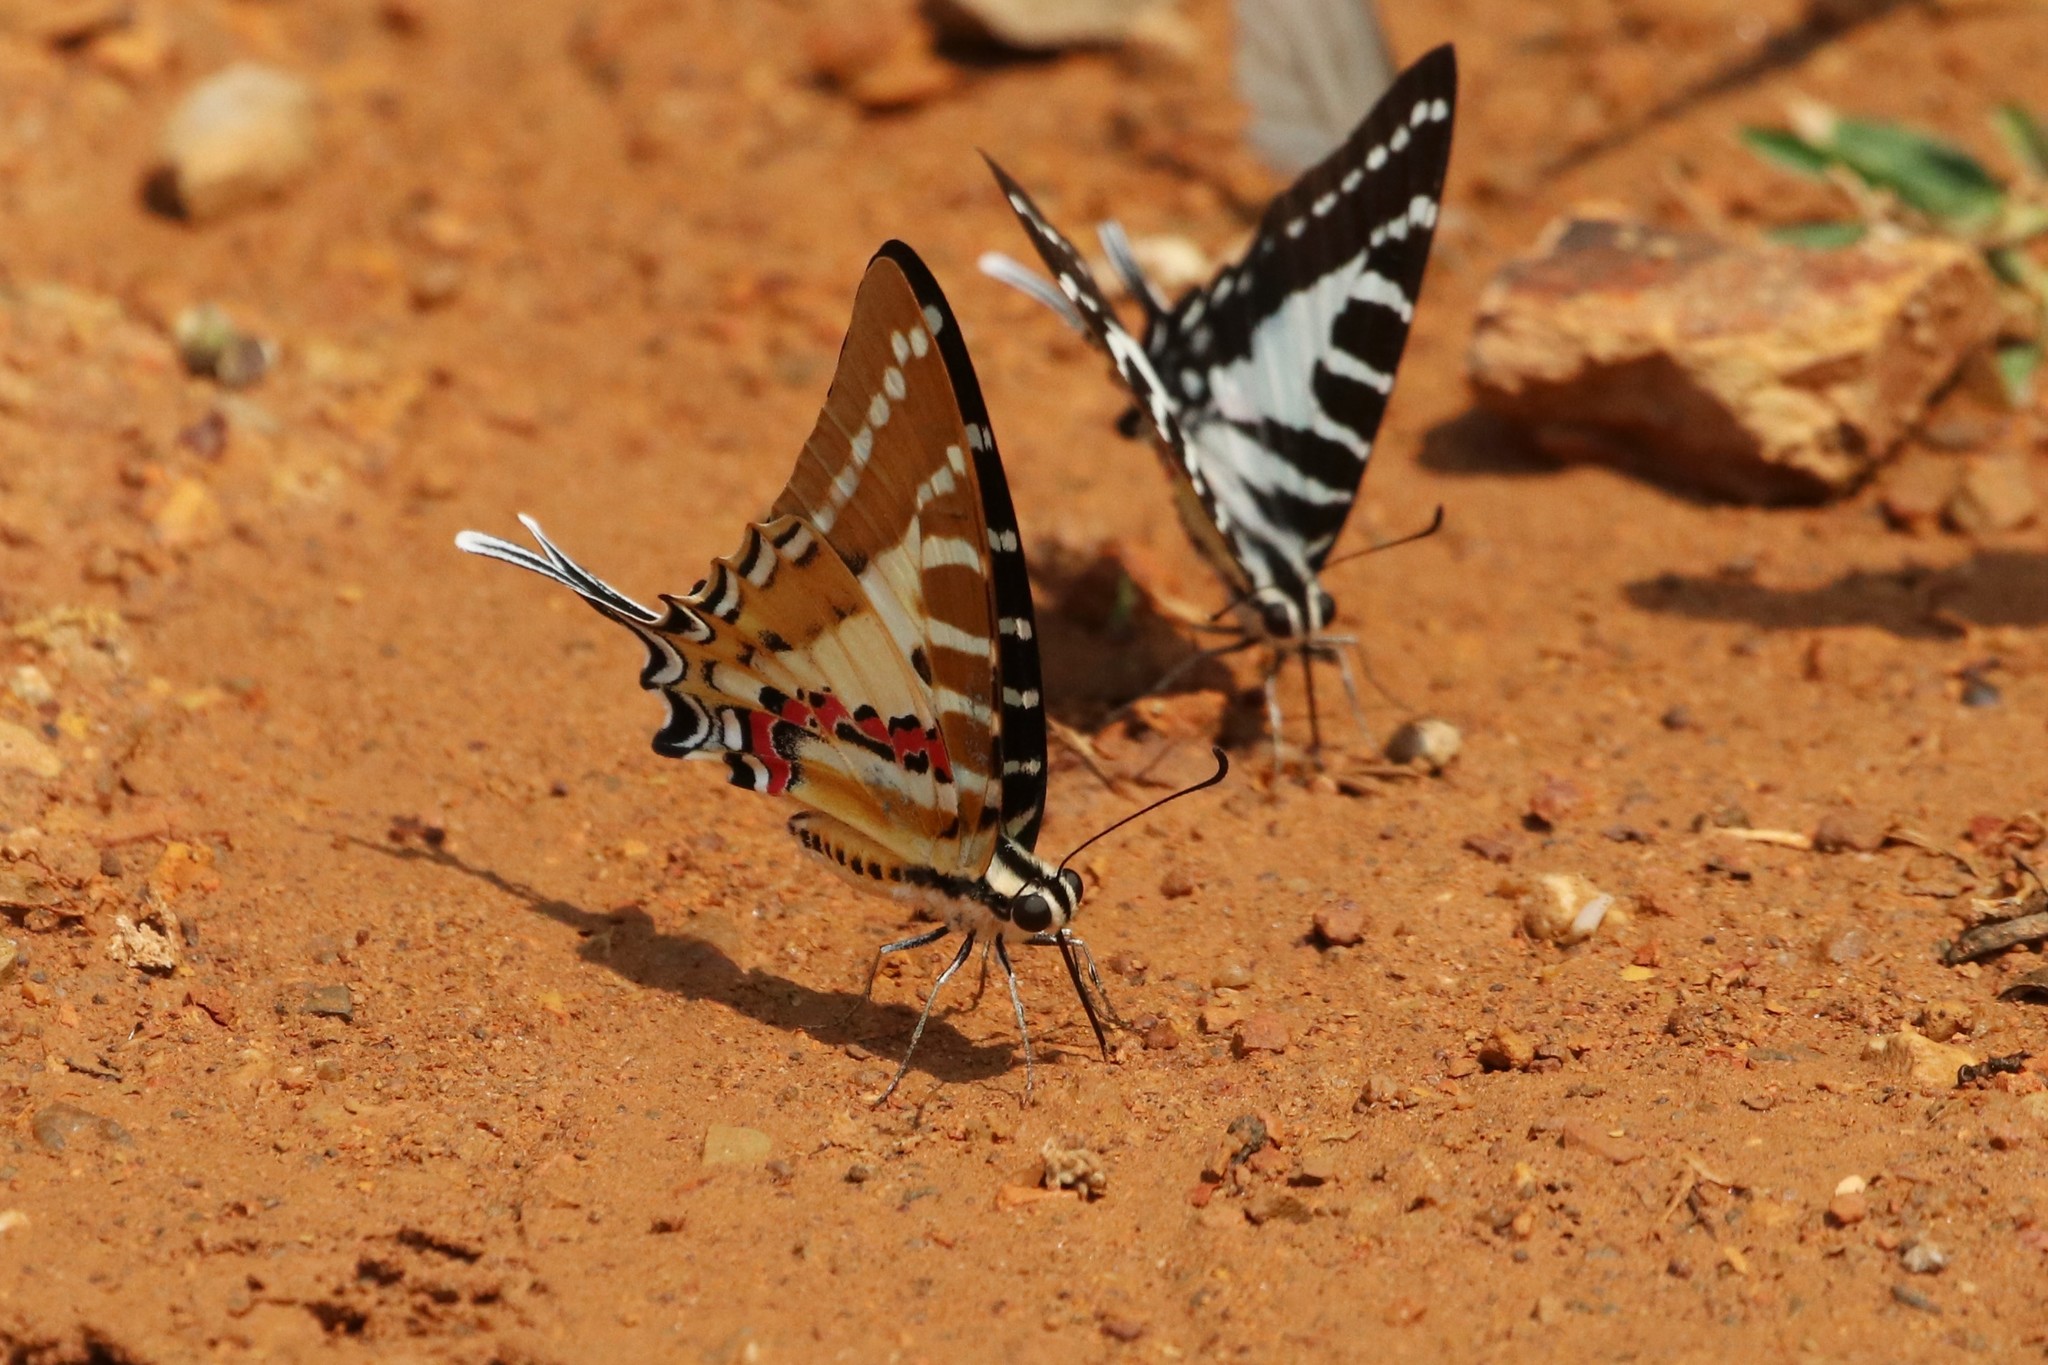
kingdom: Animalia
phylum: Arthropoda
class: Insecta
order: Lepidoptera
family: Papilionidae
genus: Graphium
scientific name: Graphium nomius
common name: Spot swordtail
